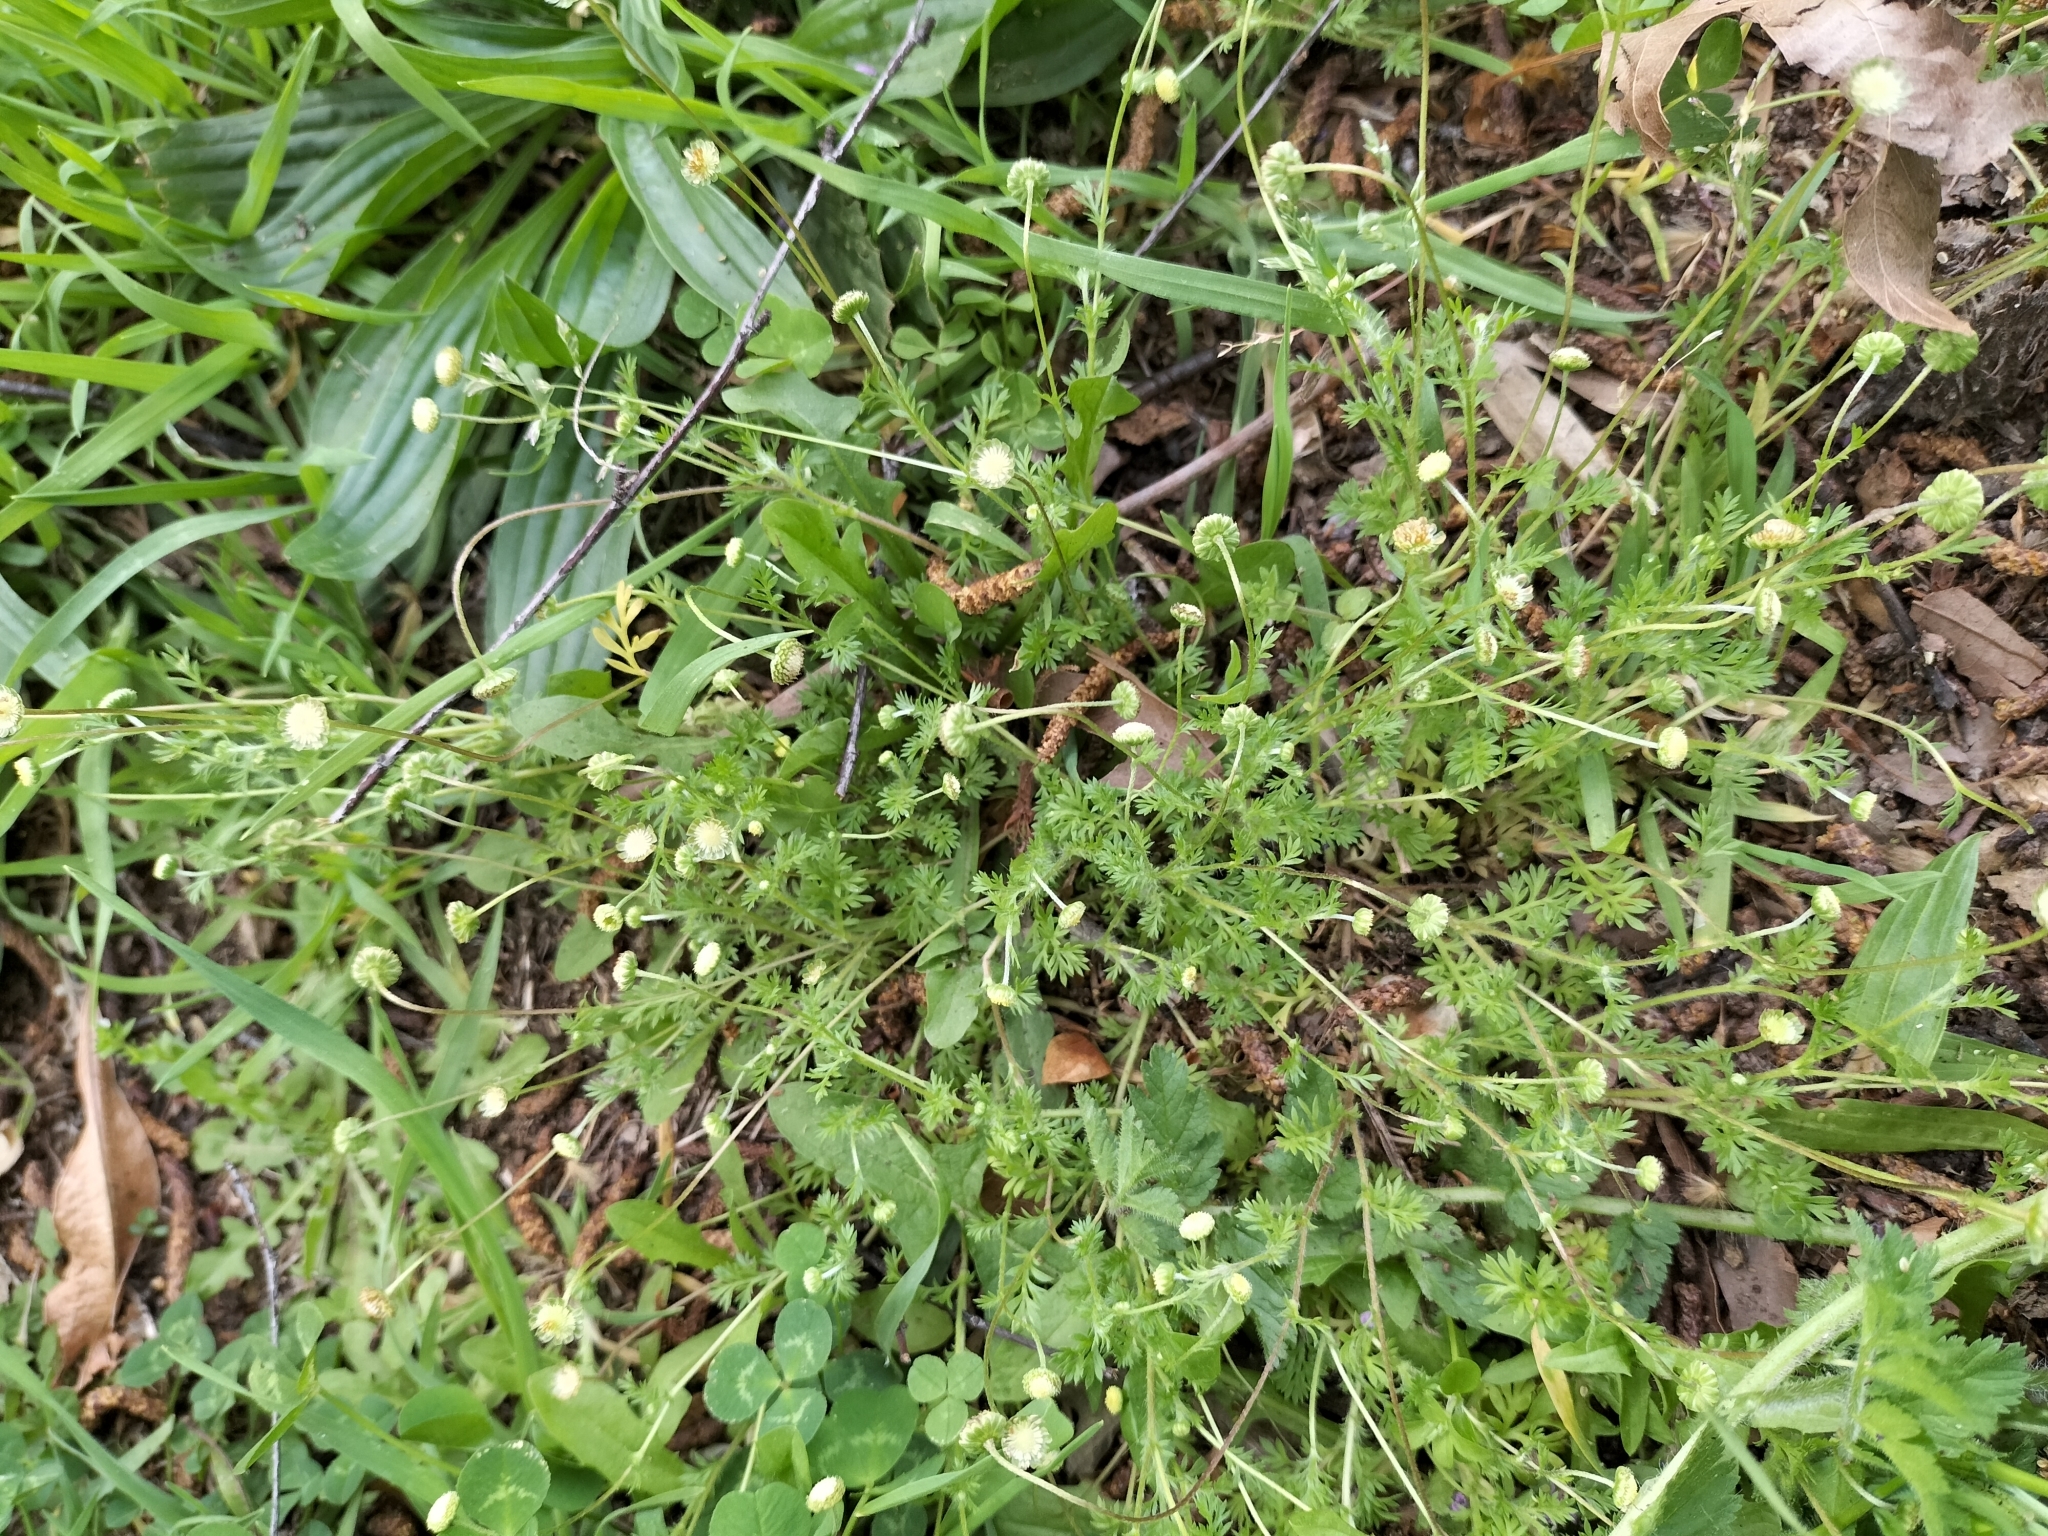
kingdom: Plantae
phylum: Tracheophyta
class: Magnoliopsida
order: Asterales
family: Asteraceae
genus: Cotula
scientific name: Cotula australis
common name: Australian waterbuttons
